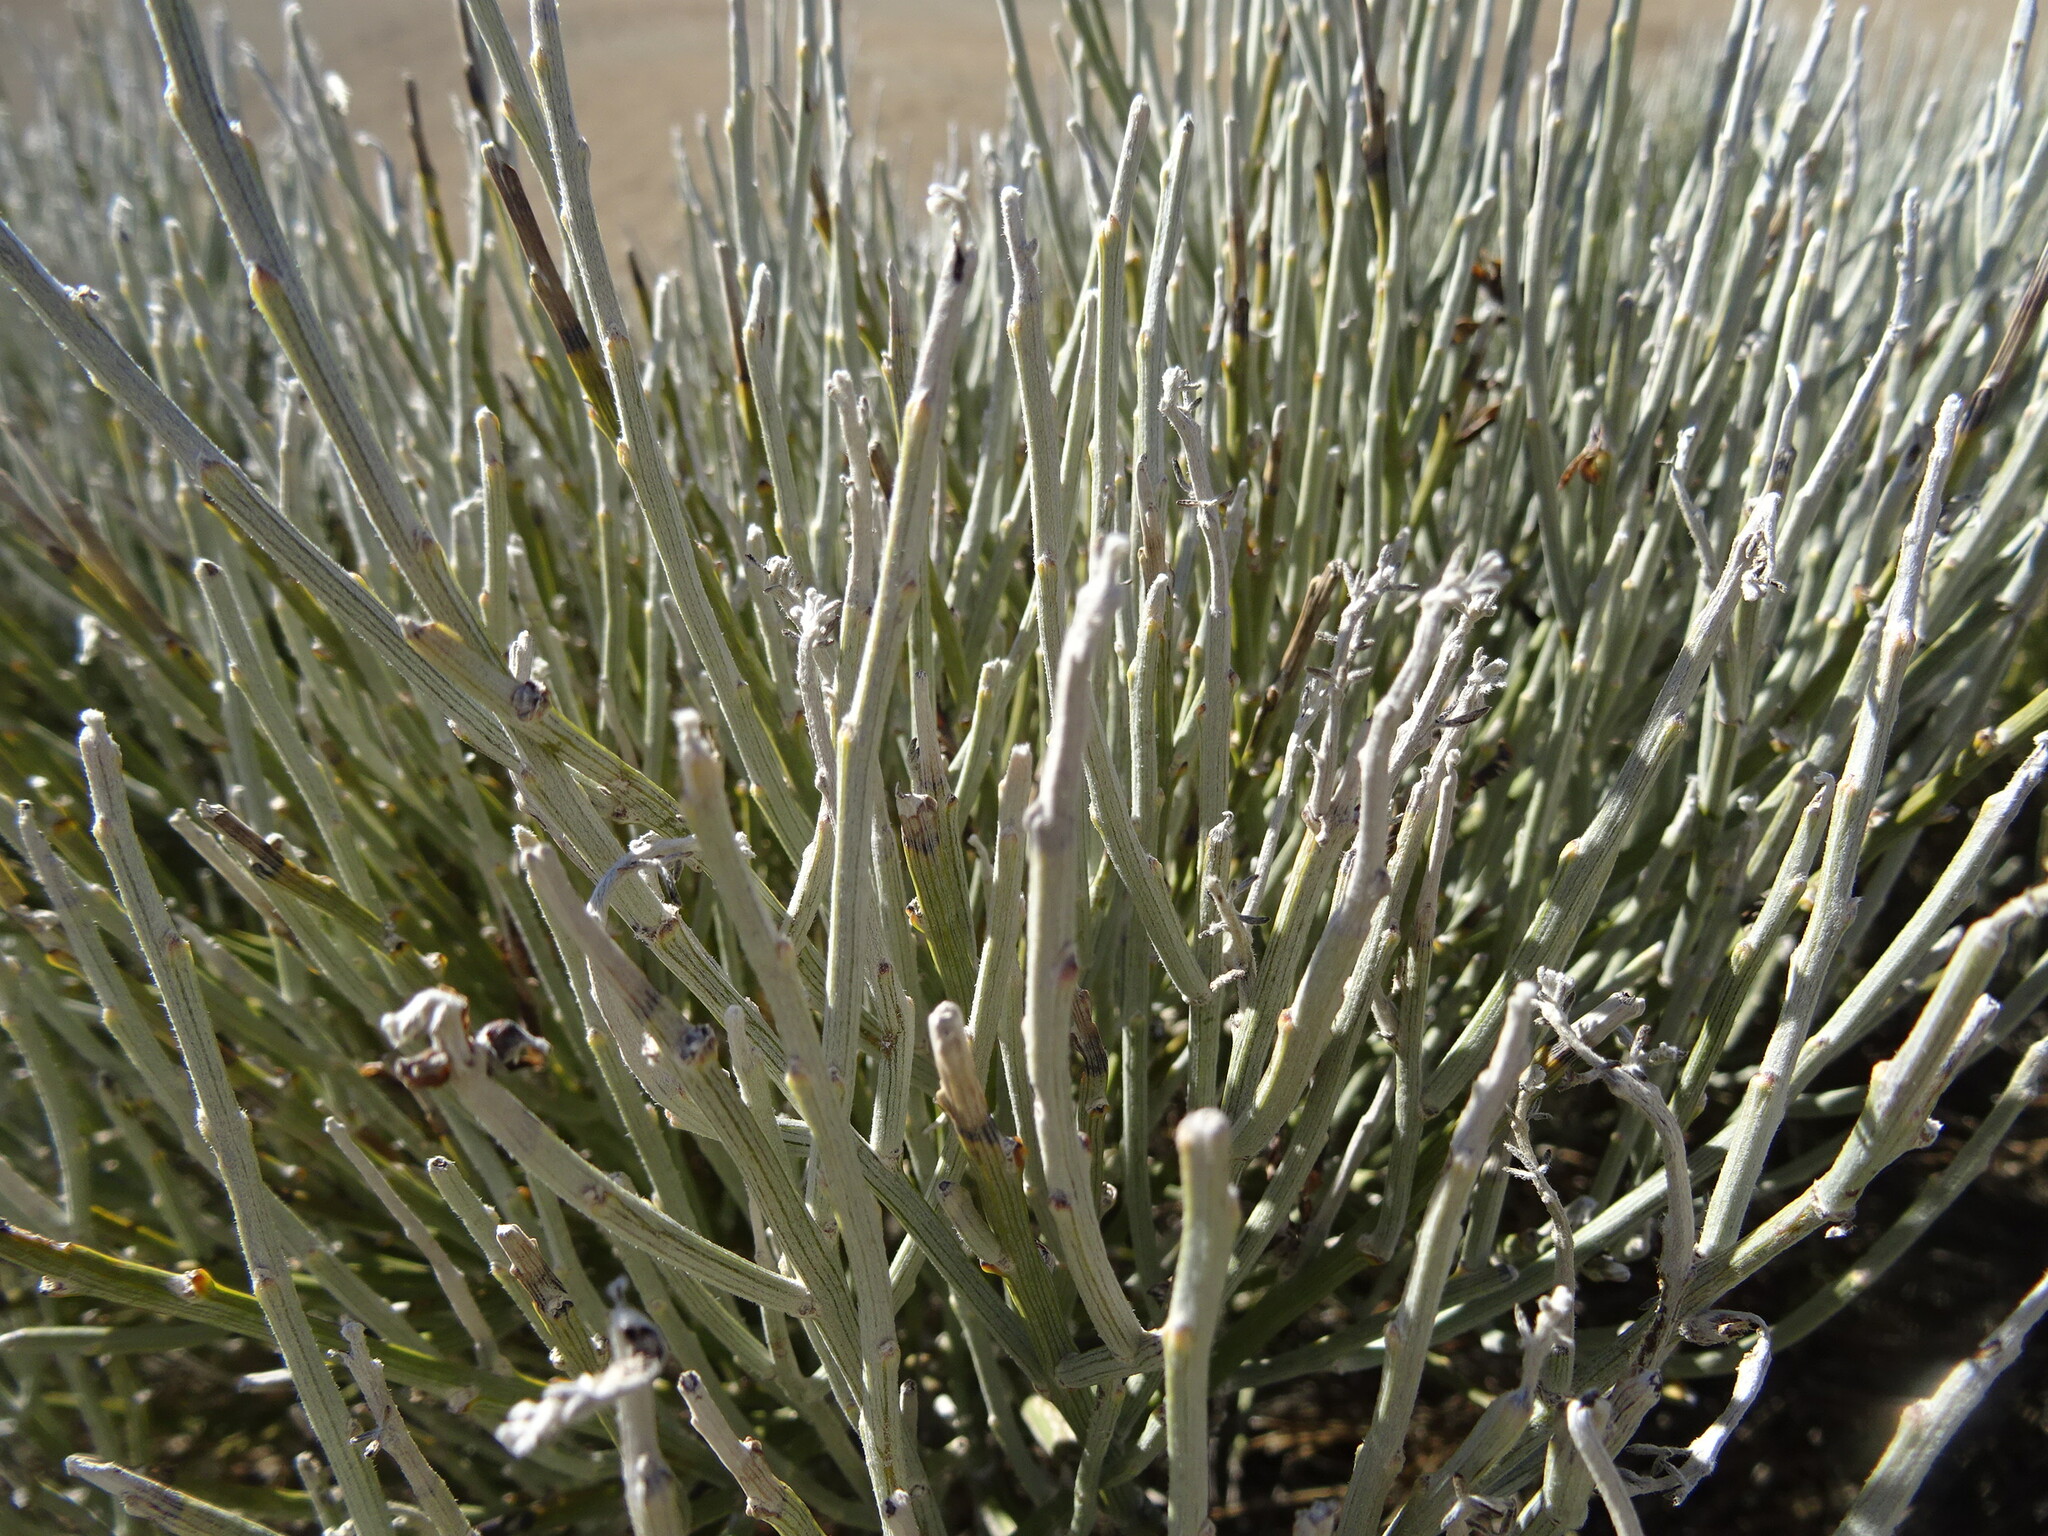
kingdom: Plantae
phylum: Tracheophyta
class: Magnoliopsida
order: Fabales
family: Fabaceae
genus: Cytisus
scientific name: Cytisus supranubius
